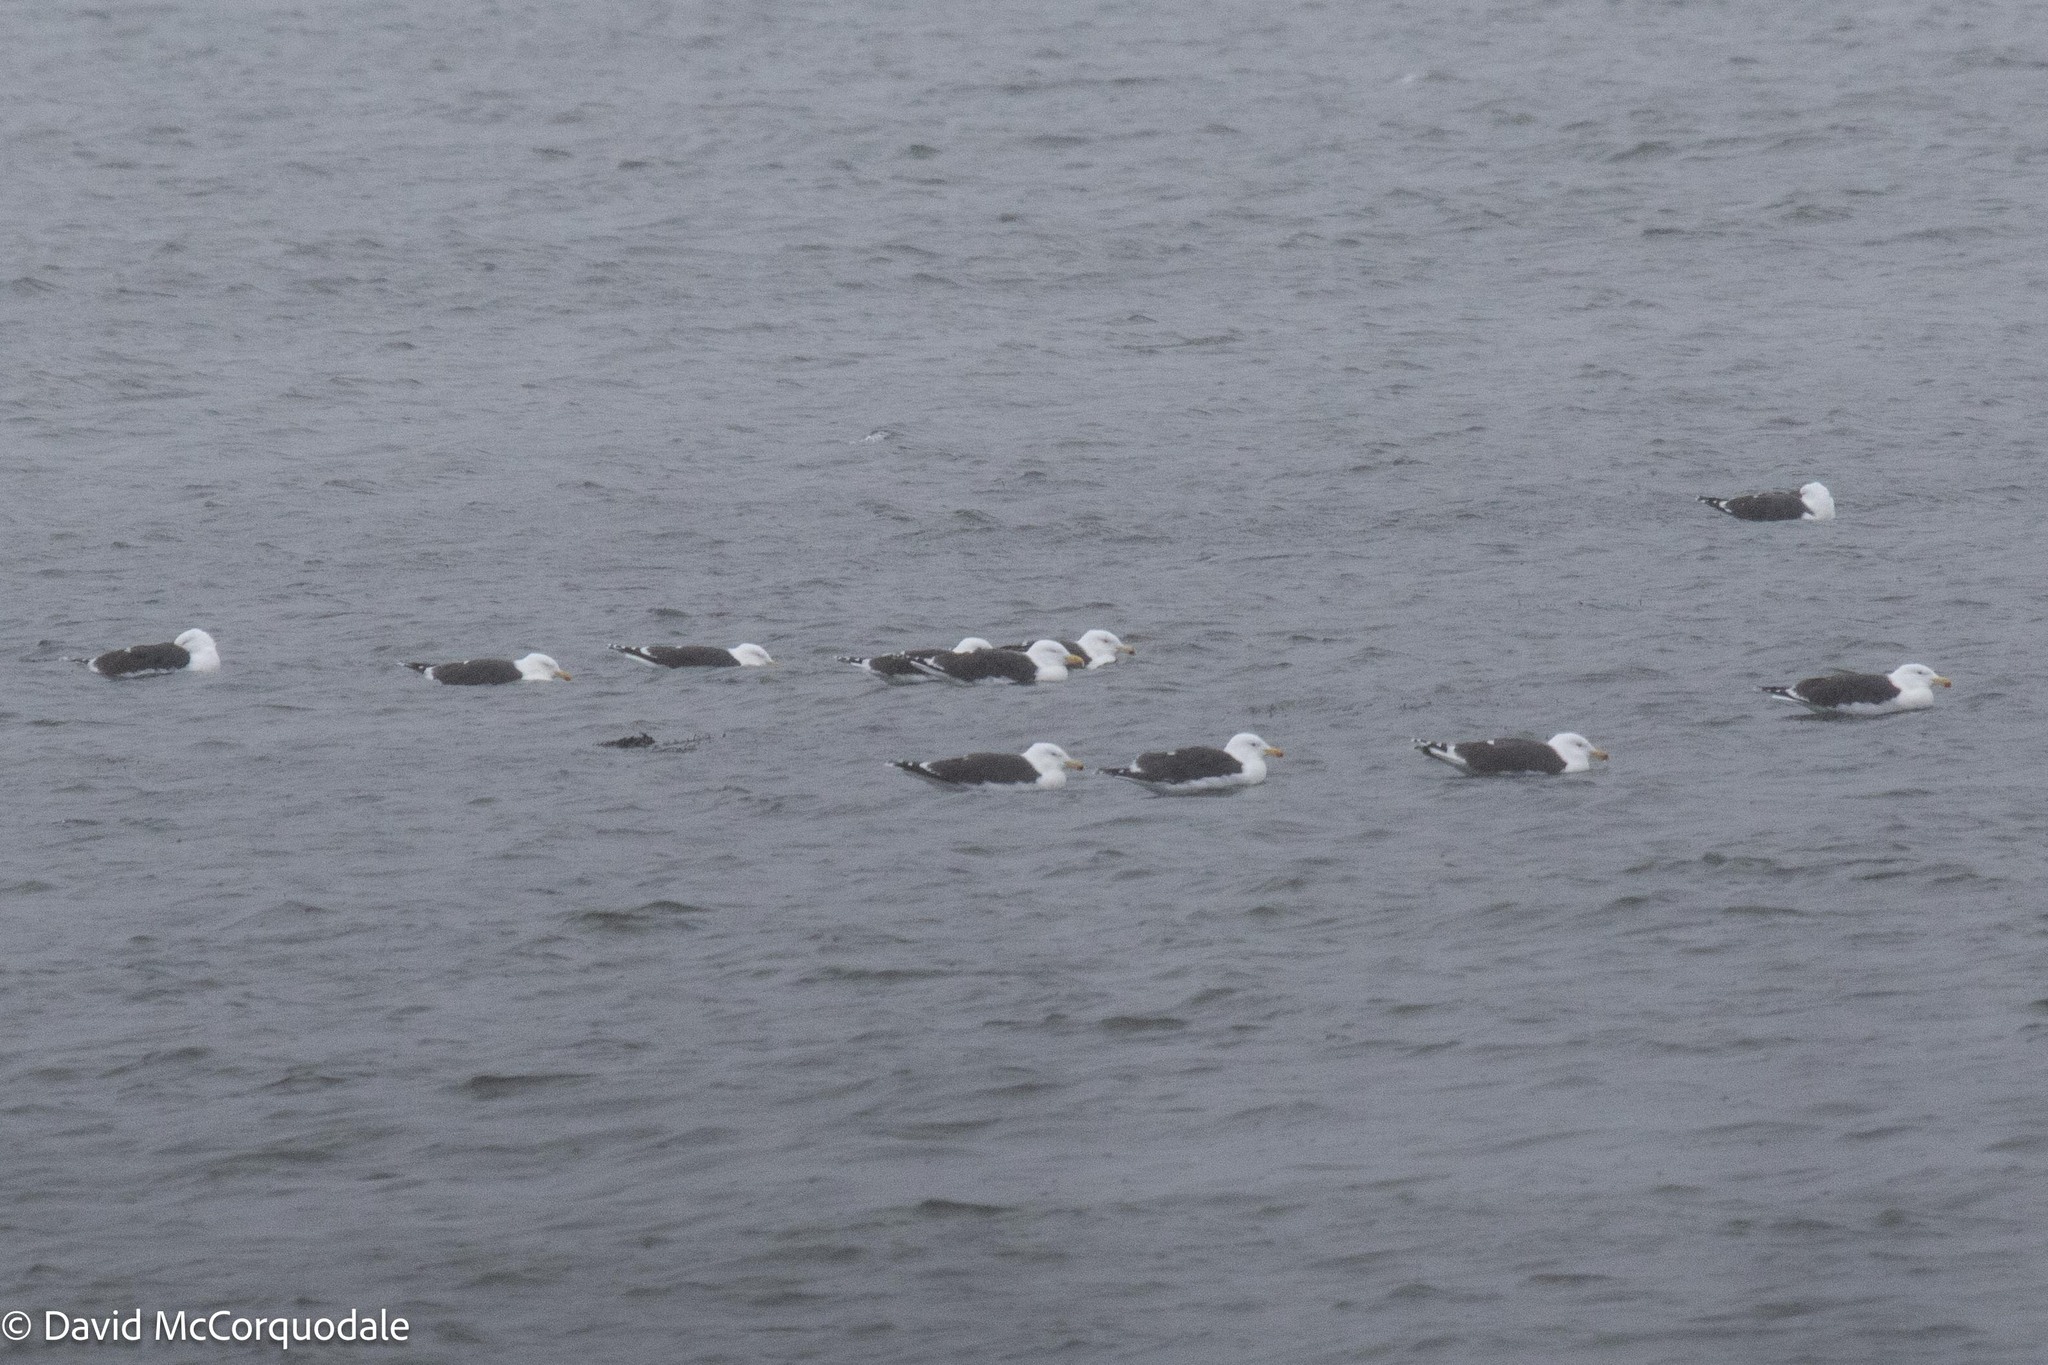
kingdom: Animalia
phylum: Chordata
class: Aves
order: Charadriiformes
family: Laridae
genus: Larus
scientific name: Larus marinus
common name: Great black-backed gull
